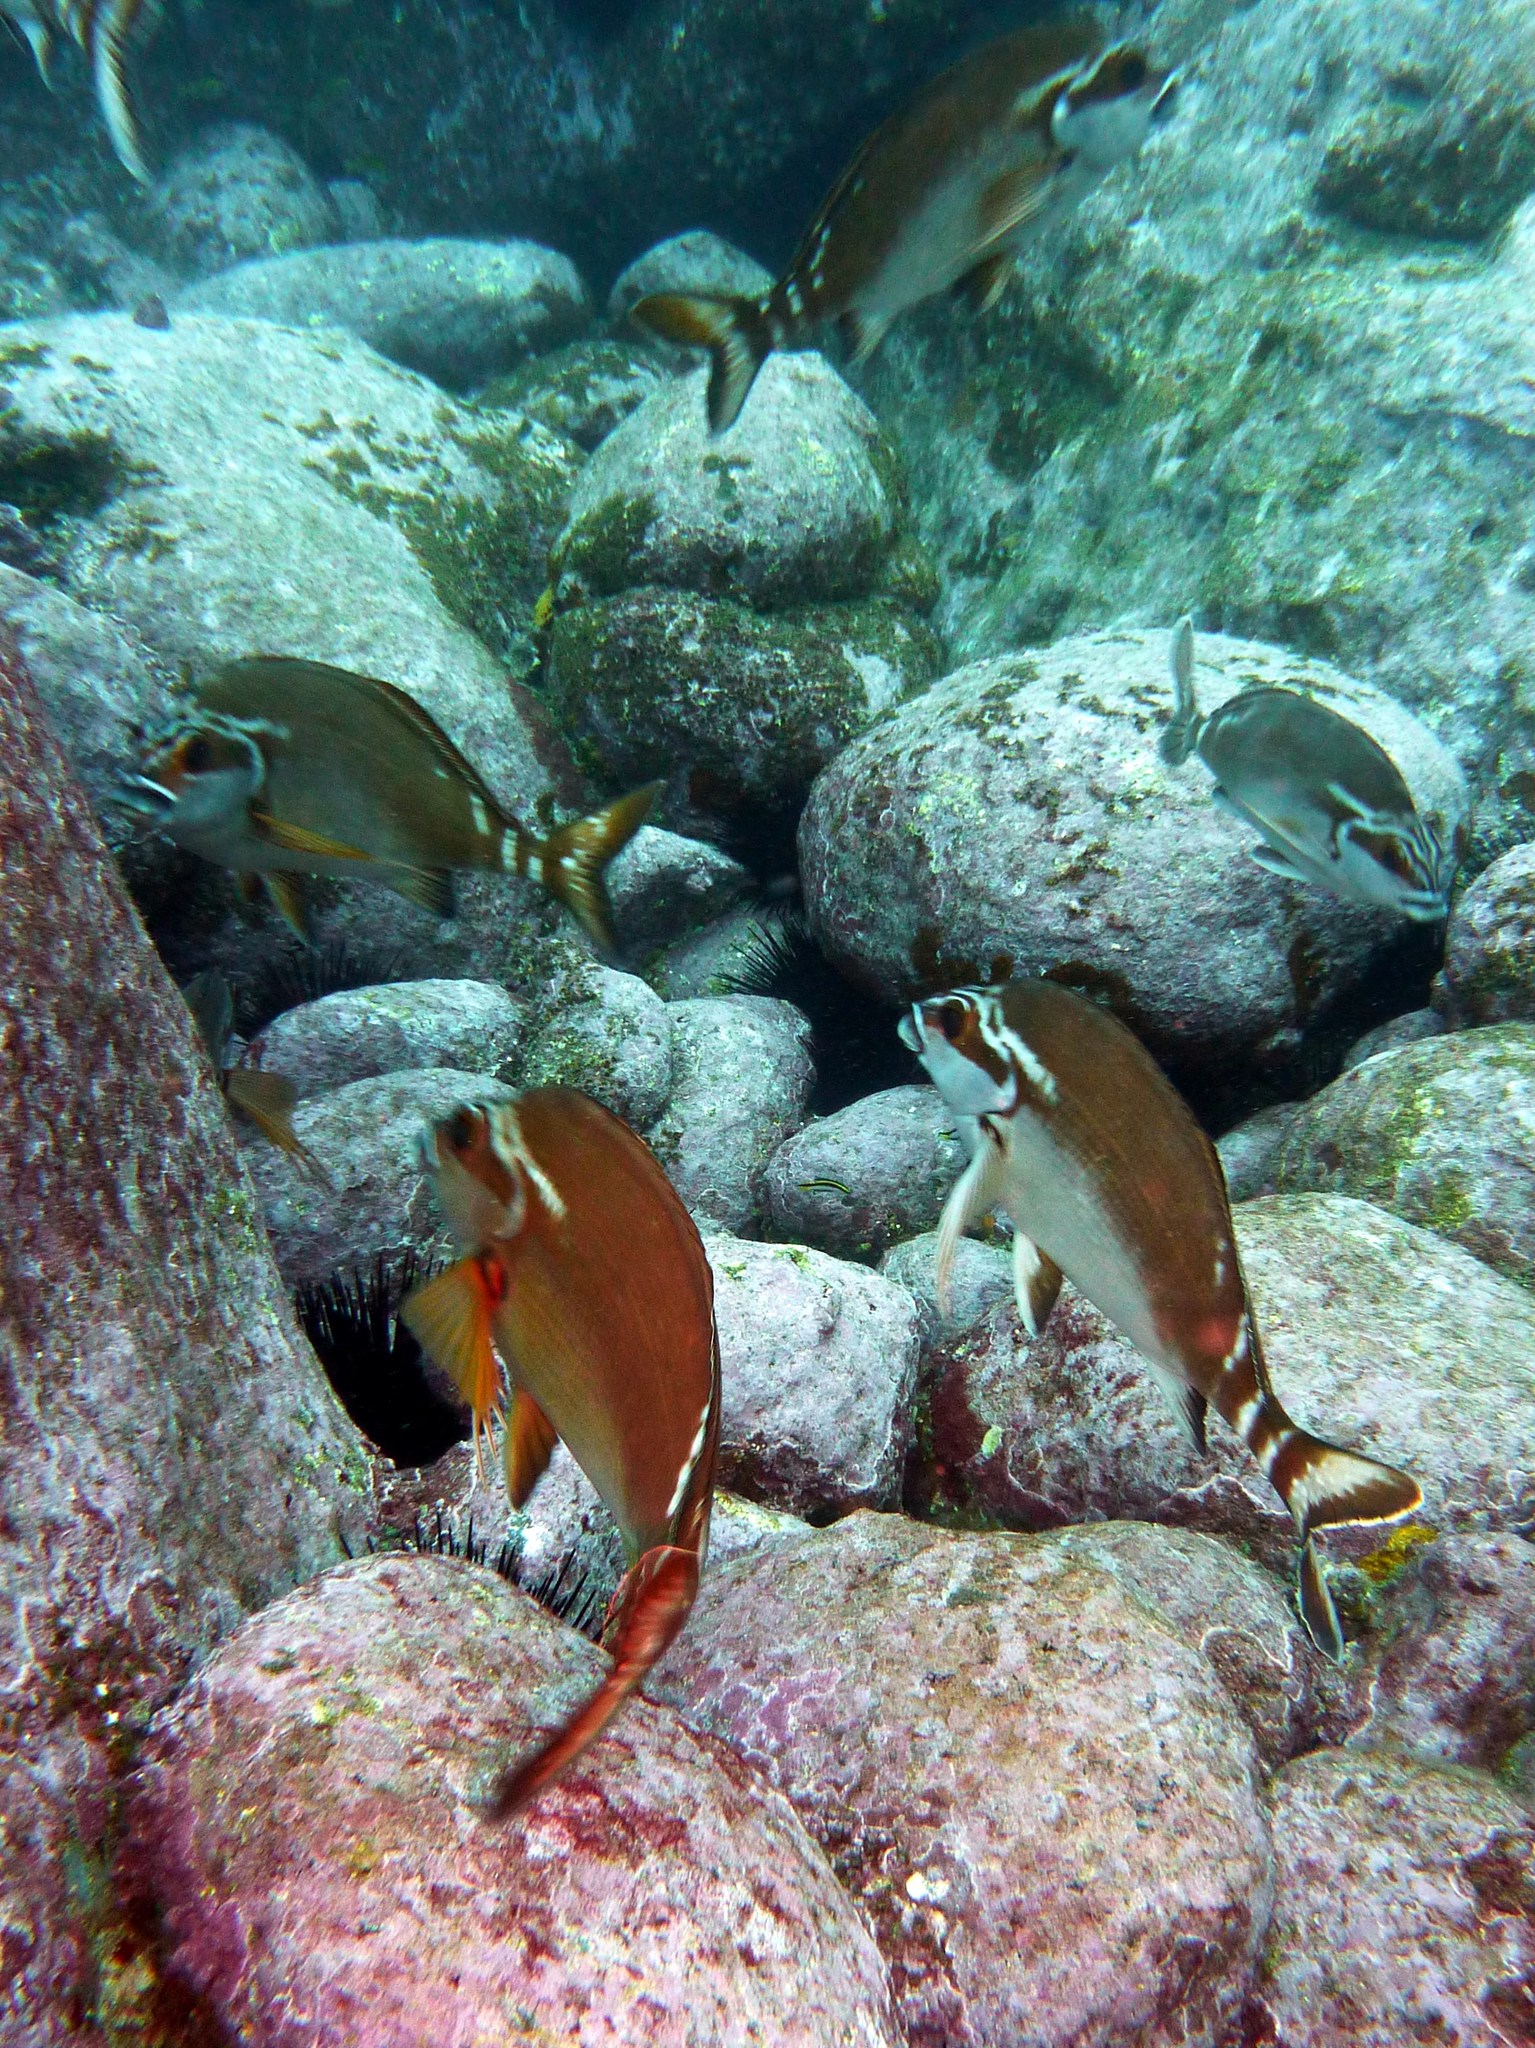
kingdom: Animalia
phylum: Chordata
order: Perciformes
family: Latridae
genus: Morwong
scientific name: Morwong fuscus
